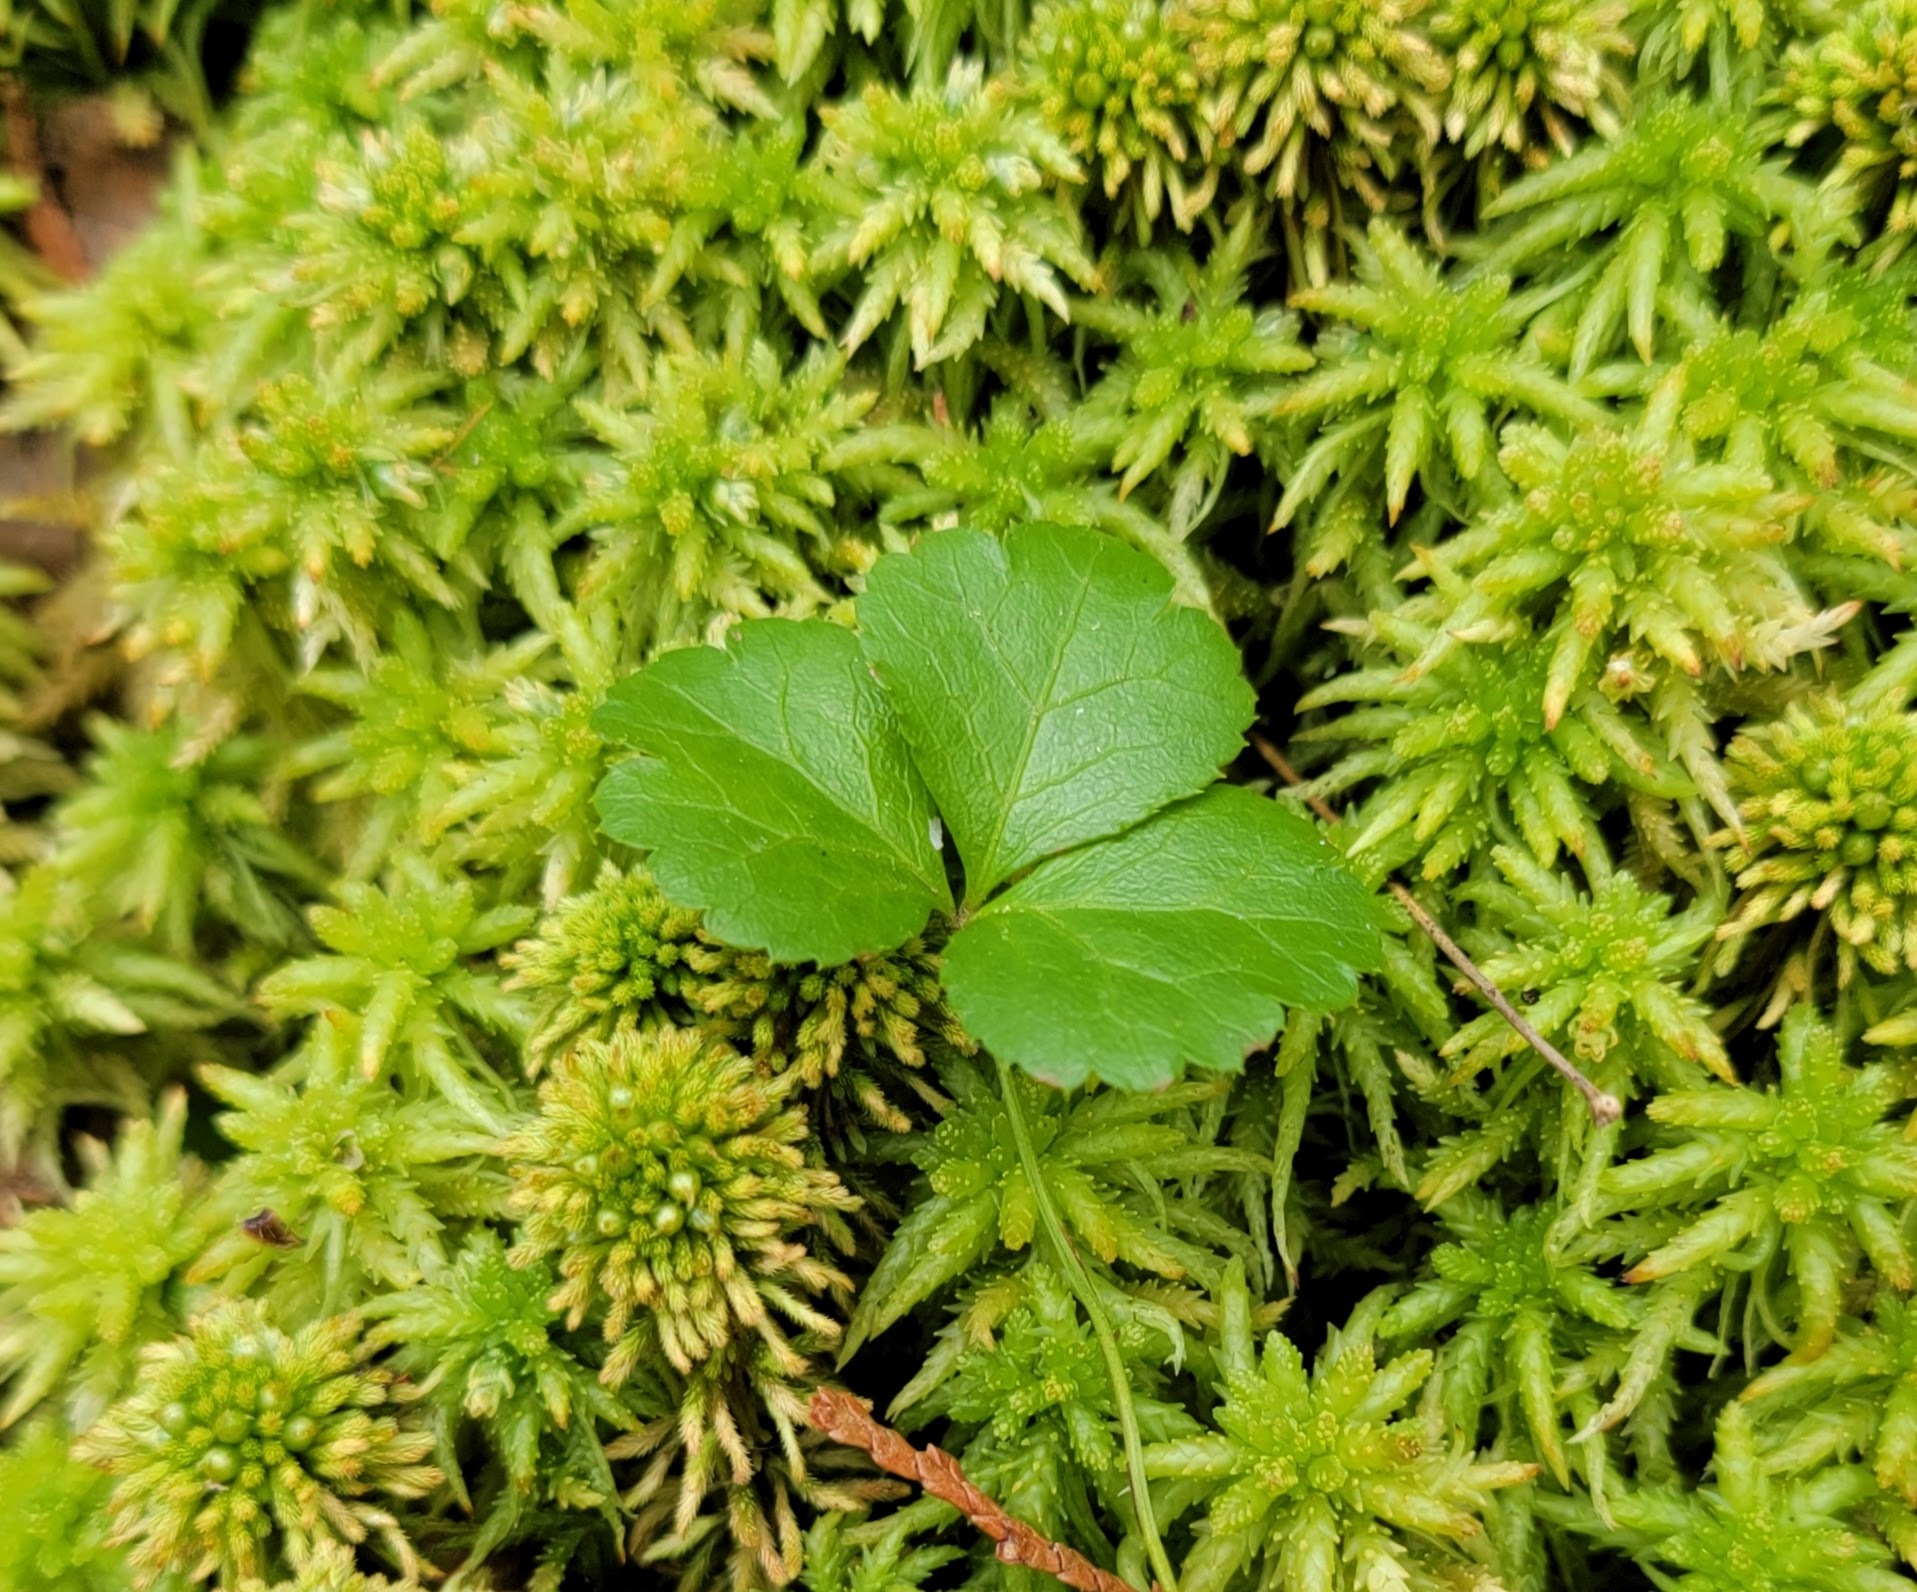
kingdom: Plantae
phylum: Tracheophyta
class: Magnoliopsida
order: Ranunculales
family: Ranunculaceae
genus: Coptis
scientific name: Coptis trifolia
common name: Canker-root
